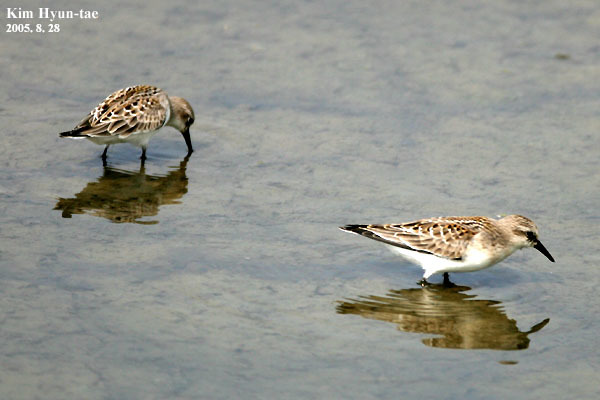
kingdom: Animalia
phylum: Chordata
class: Aves
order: Charadriiformes
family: Scolopacidae
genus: Calidris
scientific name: Calidris ruficollis
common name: Red-necked stint
